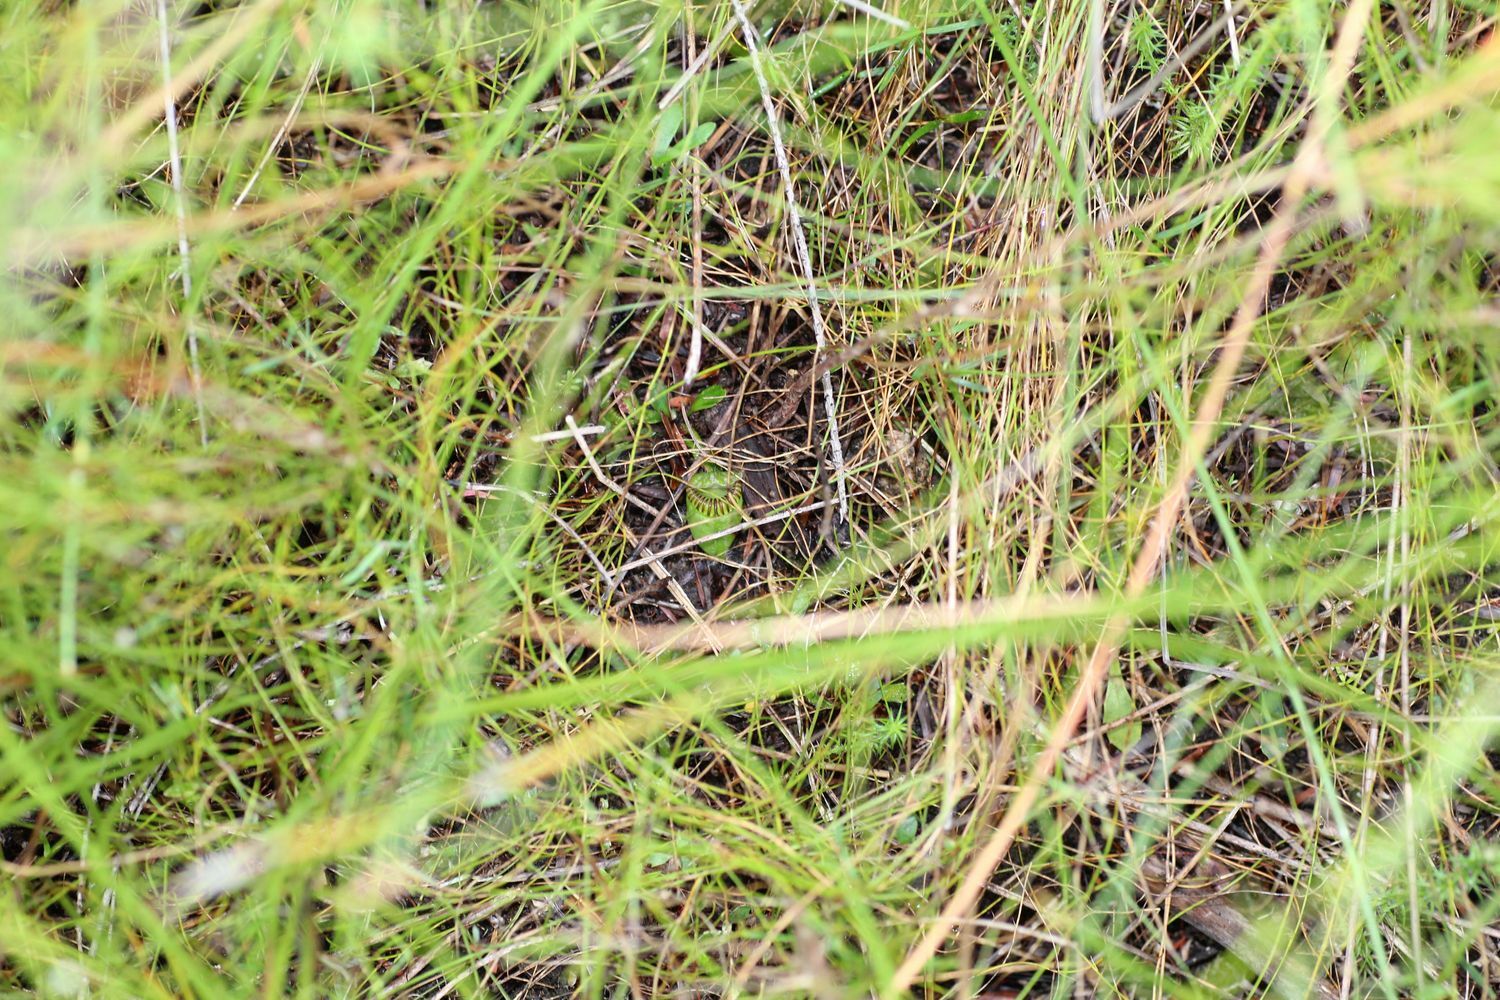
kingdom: Plantae
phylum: Tracheophyta
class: Magnoliopsida
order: Oxalidales
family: Cephalotaceae
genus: Cephalotus
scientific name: Cephalotus follicularis
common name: Australian pitcher plant
